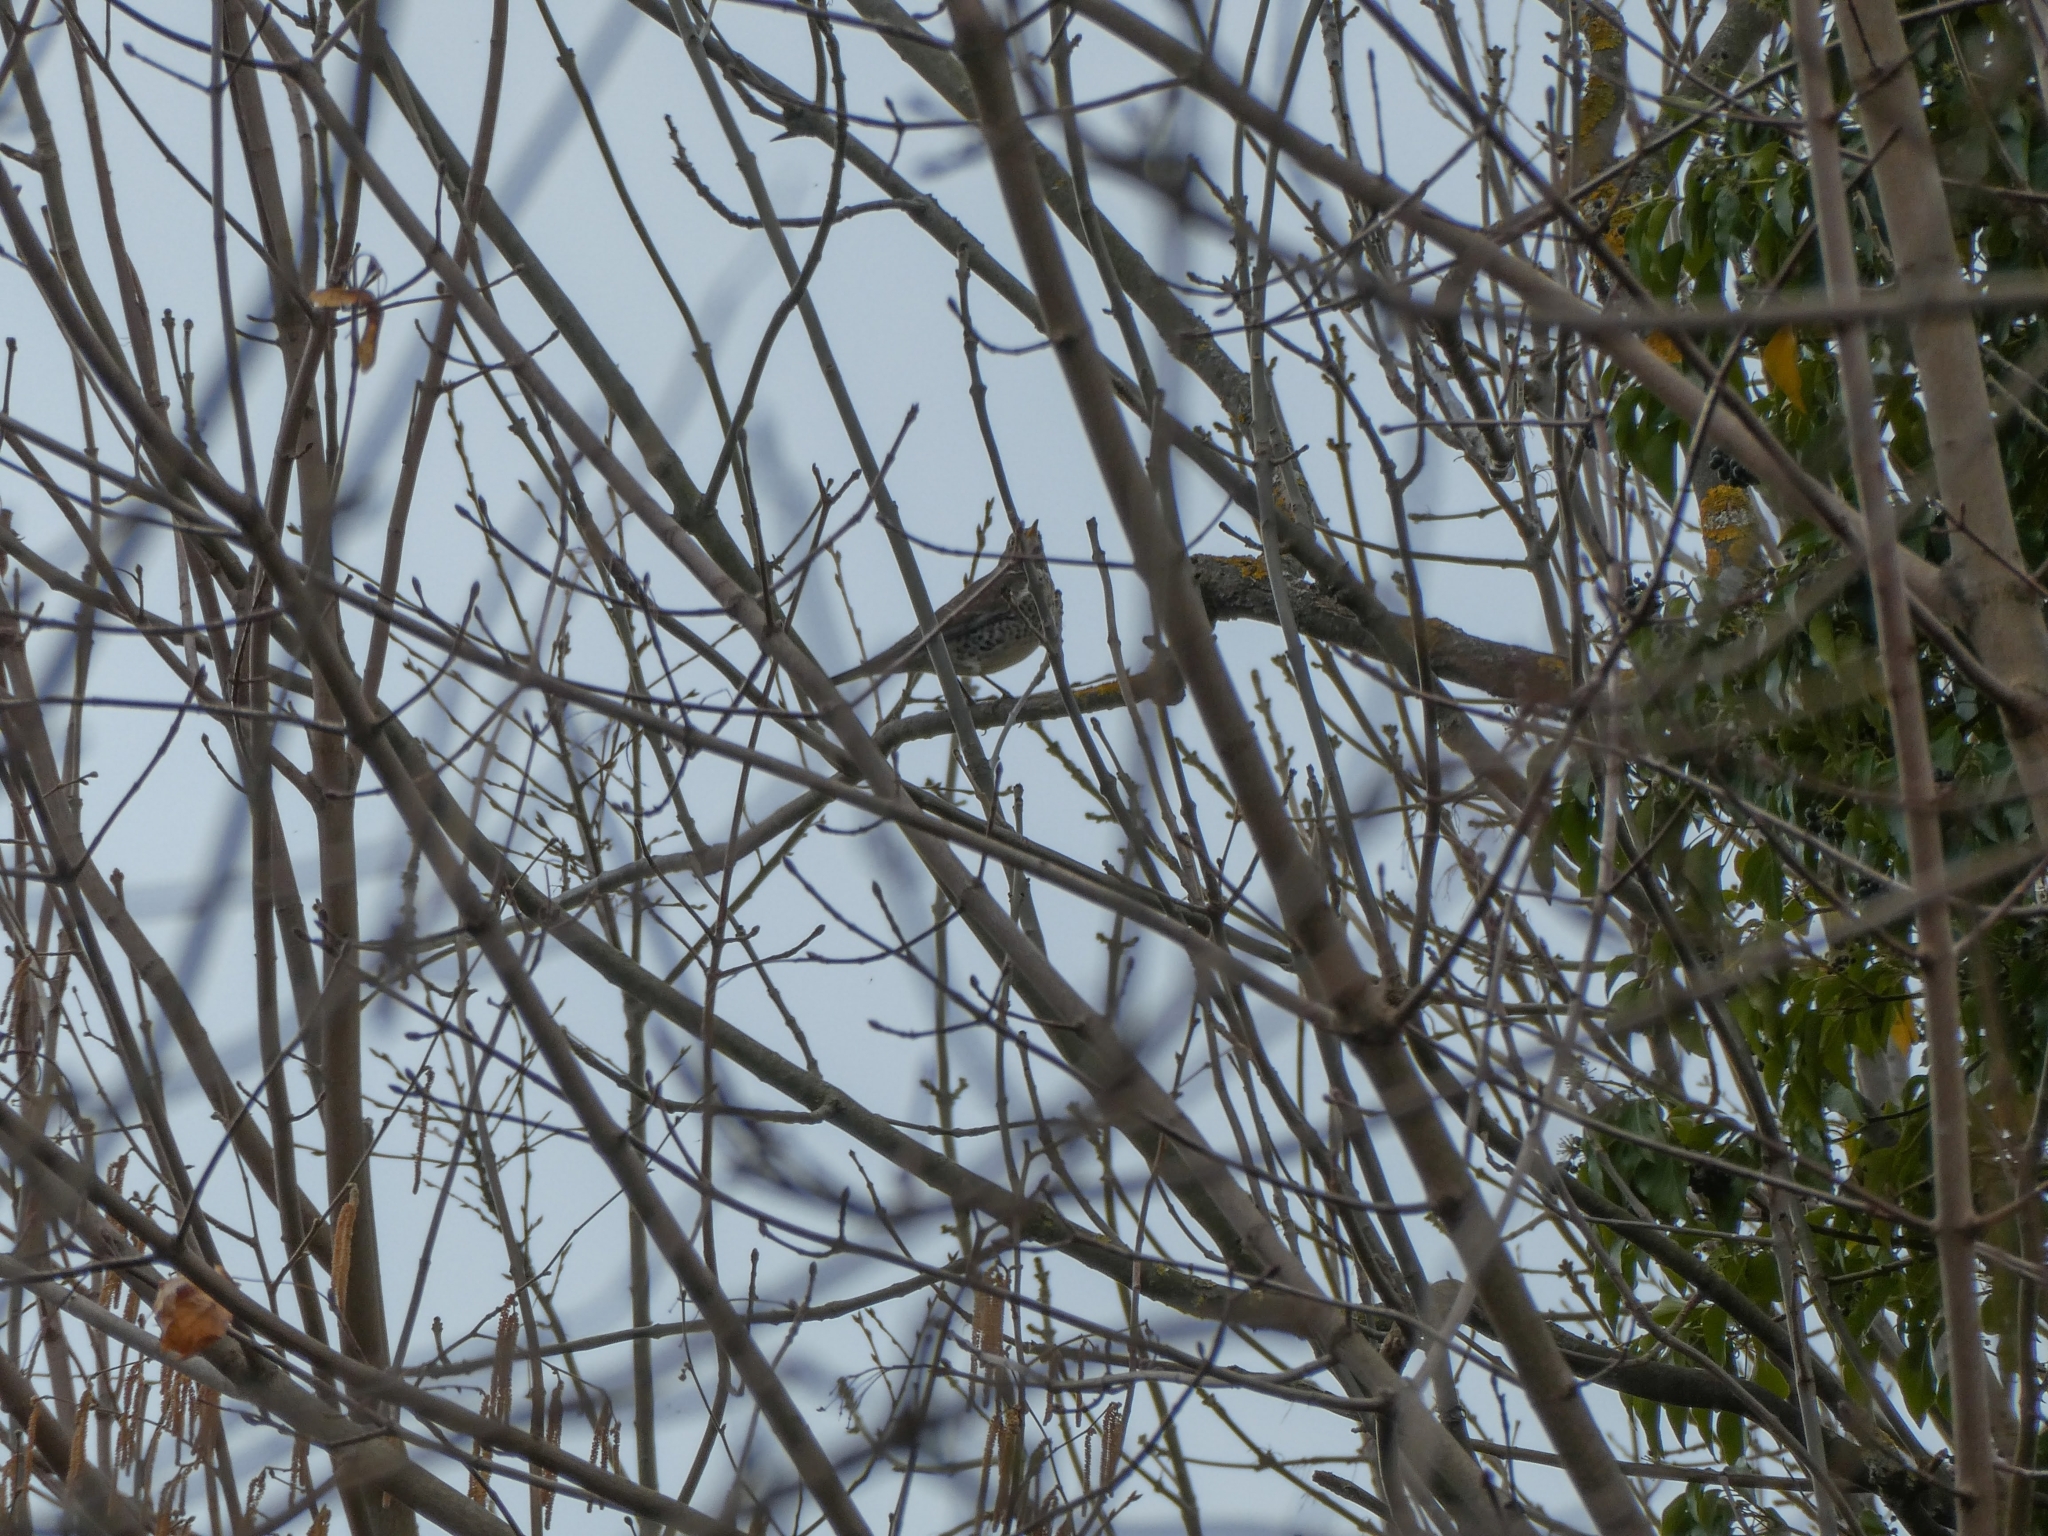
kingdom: Animalia
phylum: Chordata
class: Aves
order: Passeriformes
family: Turdidae
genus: Turdus
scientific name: Turdus viscivorus
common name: Mistle thrush
